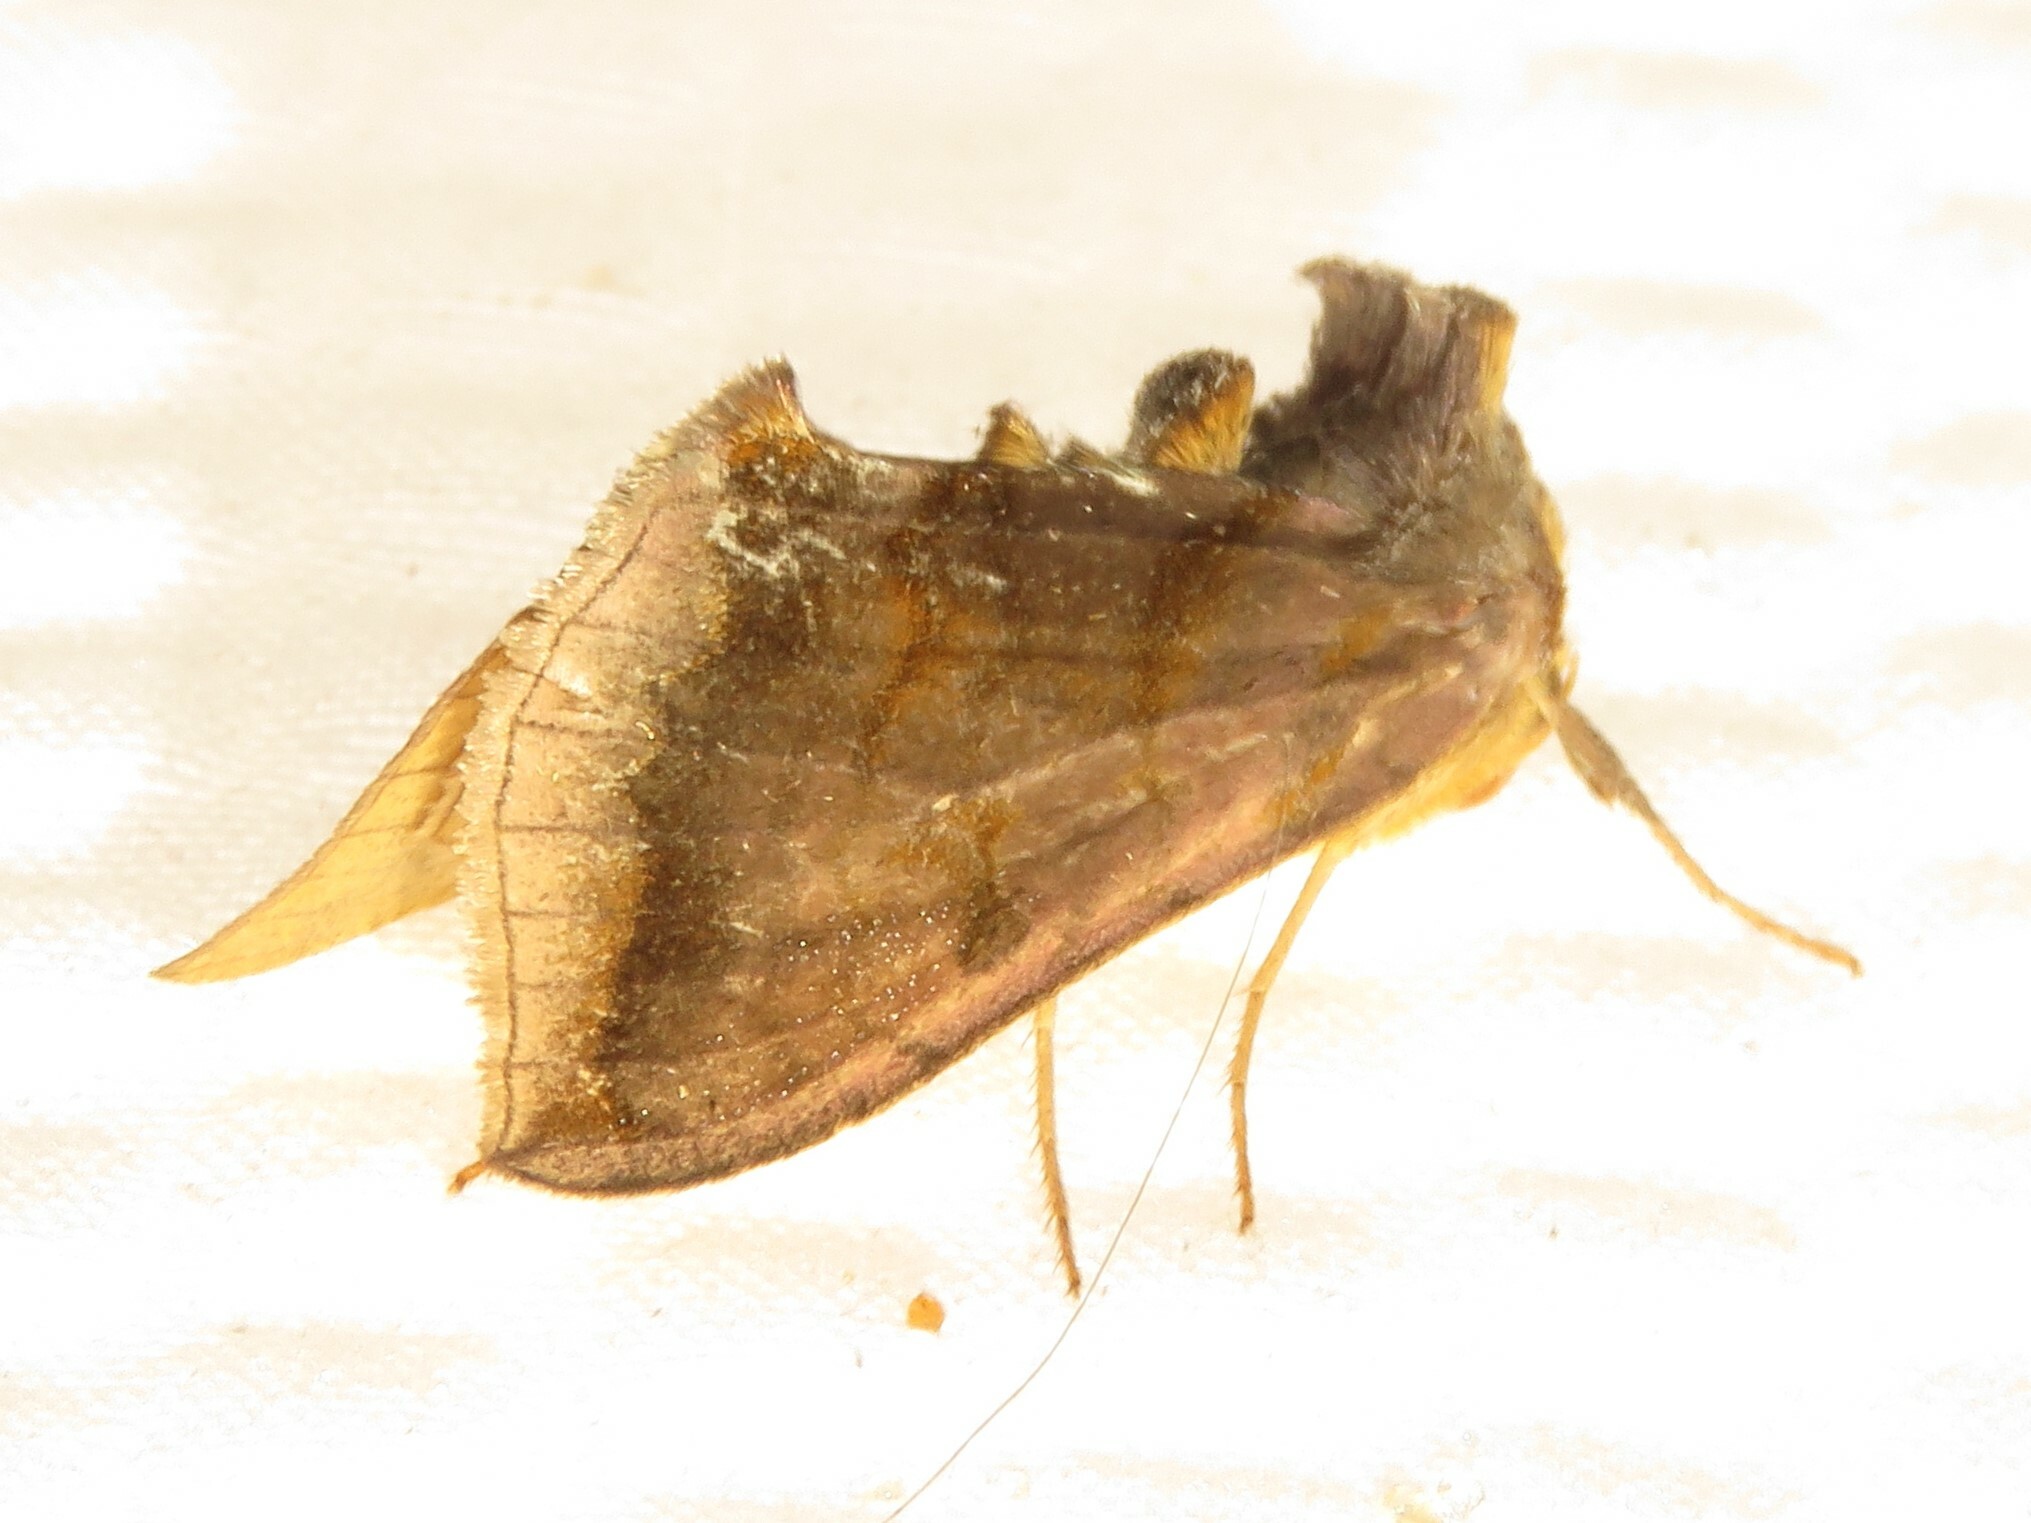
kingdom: Animalia
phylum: Arthropoda
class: Insecta
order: Lepidoptera
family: Noctuidae
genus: Allagrapha
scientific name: Allagrapha aerea
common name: Unspotted looper moth
